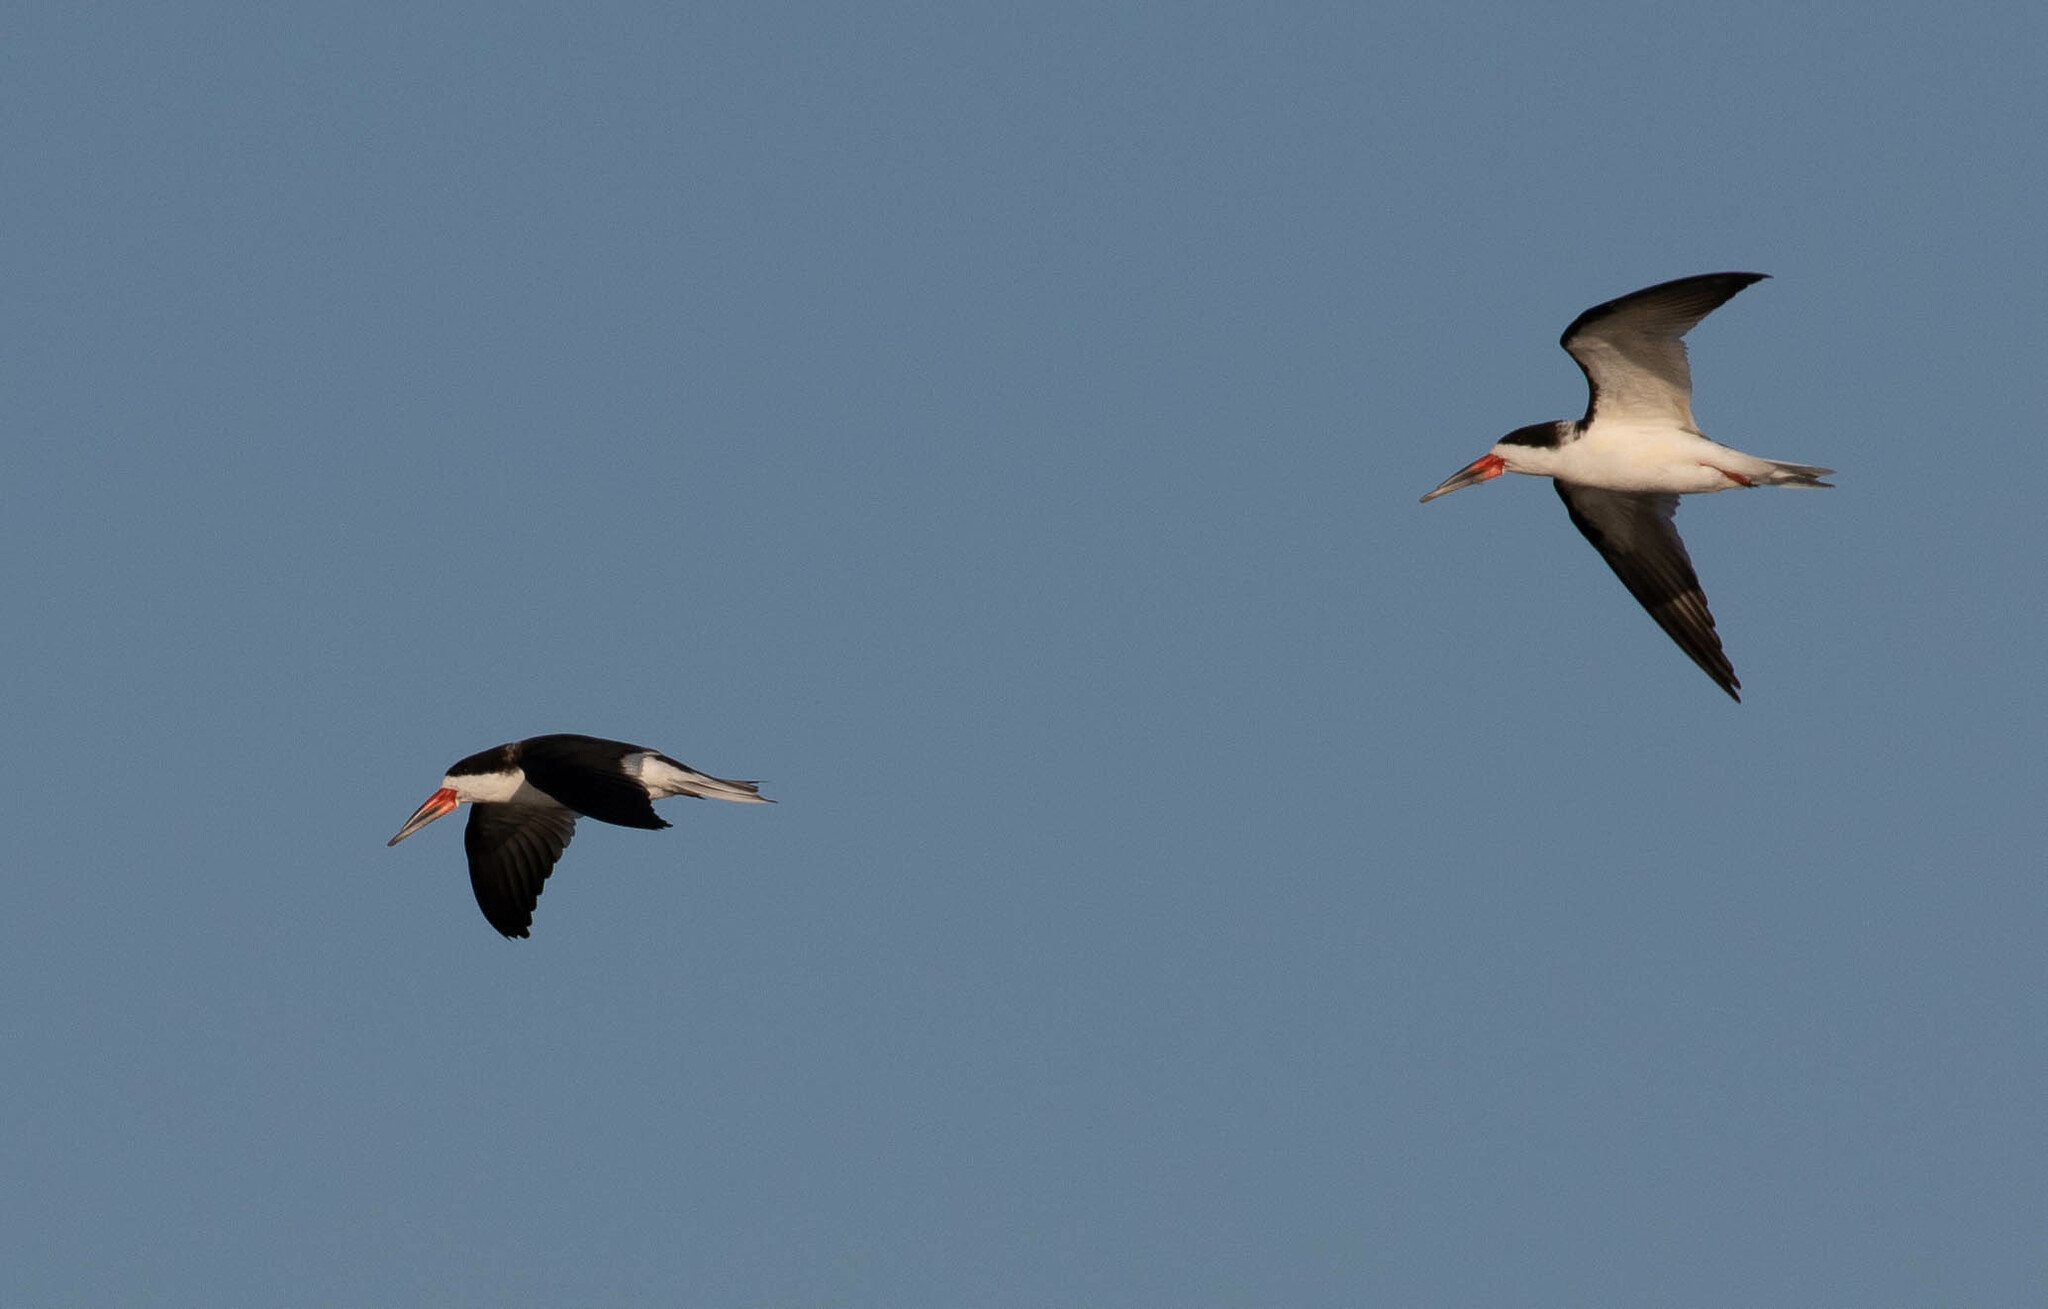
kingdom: Animalia
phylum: Chordata
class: Aves
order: Charadriiformes
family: Laridae
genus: Rynchops
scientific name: Rynchops niger
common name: Black skimmer
